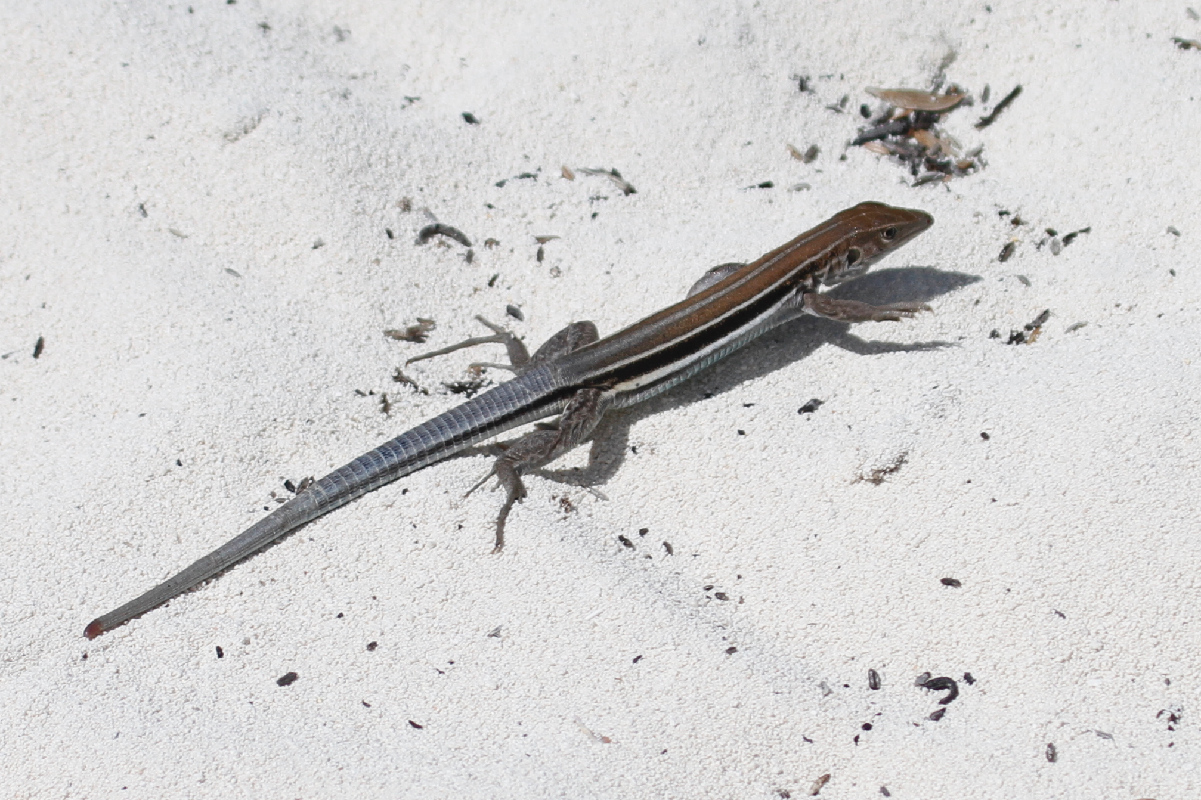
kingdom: Animalia
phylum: Chordata
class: Squamata
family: Teiidae
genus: Pholidoscelis
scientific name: Pholidoscelis auberi
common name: Auber's ameiva
